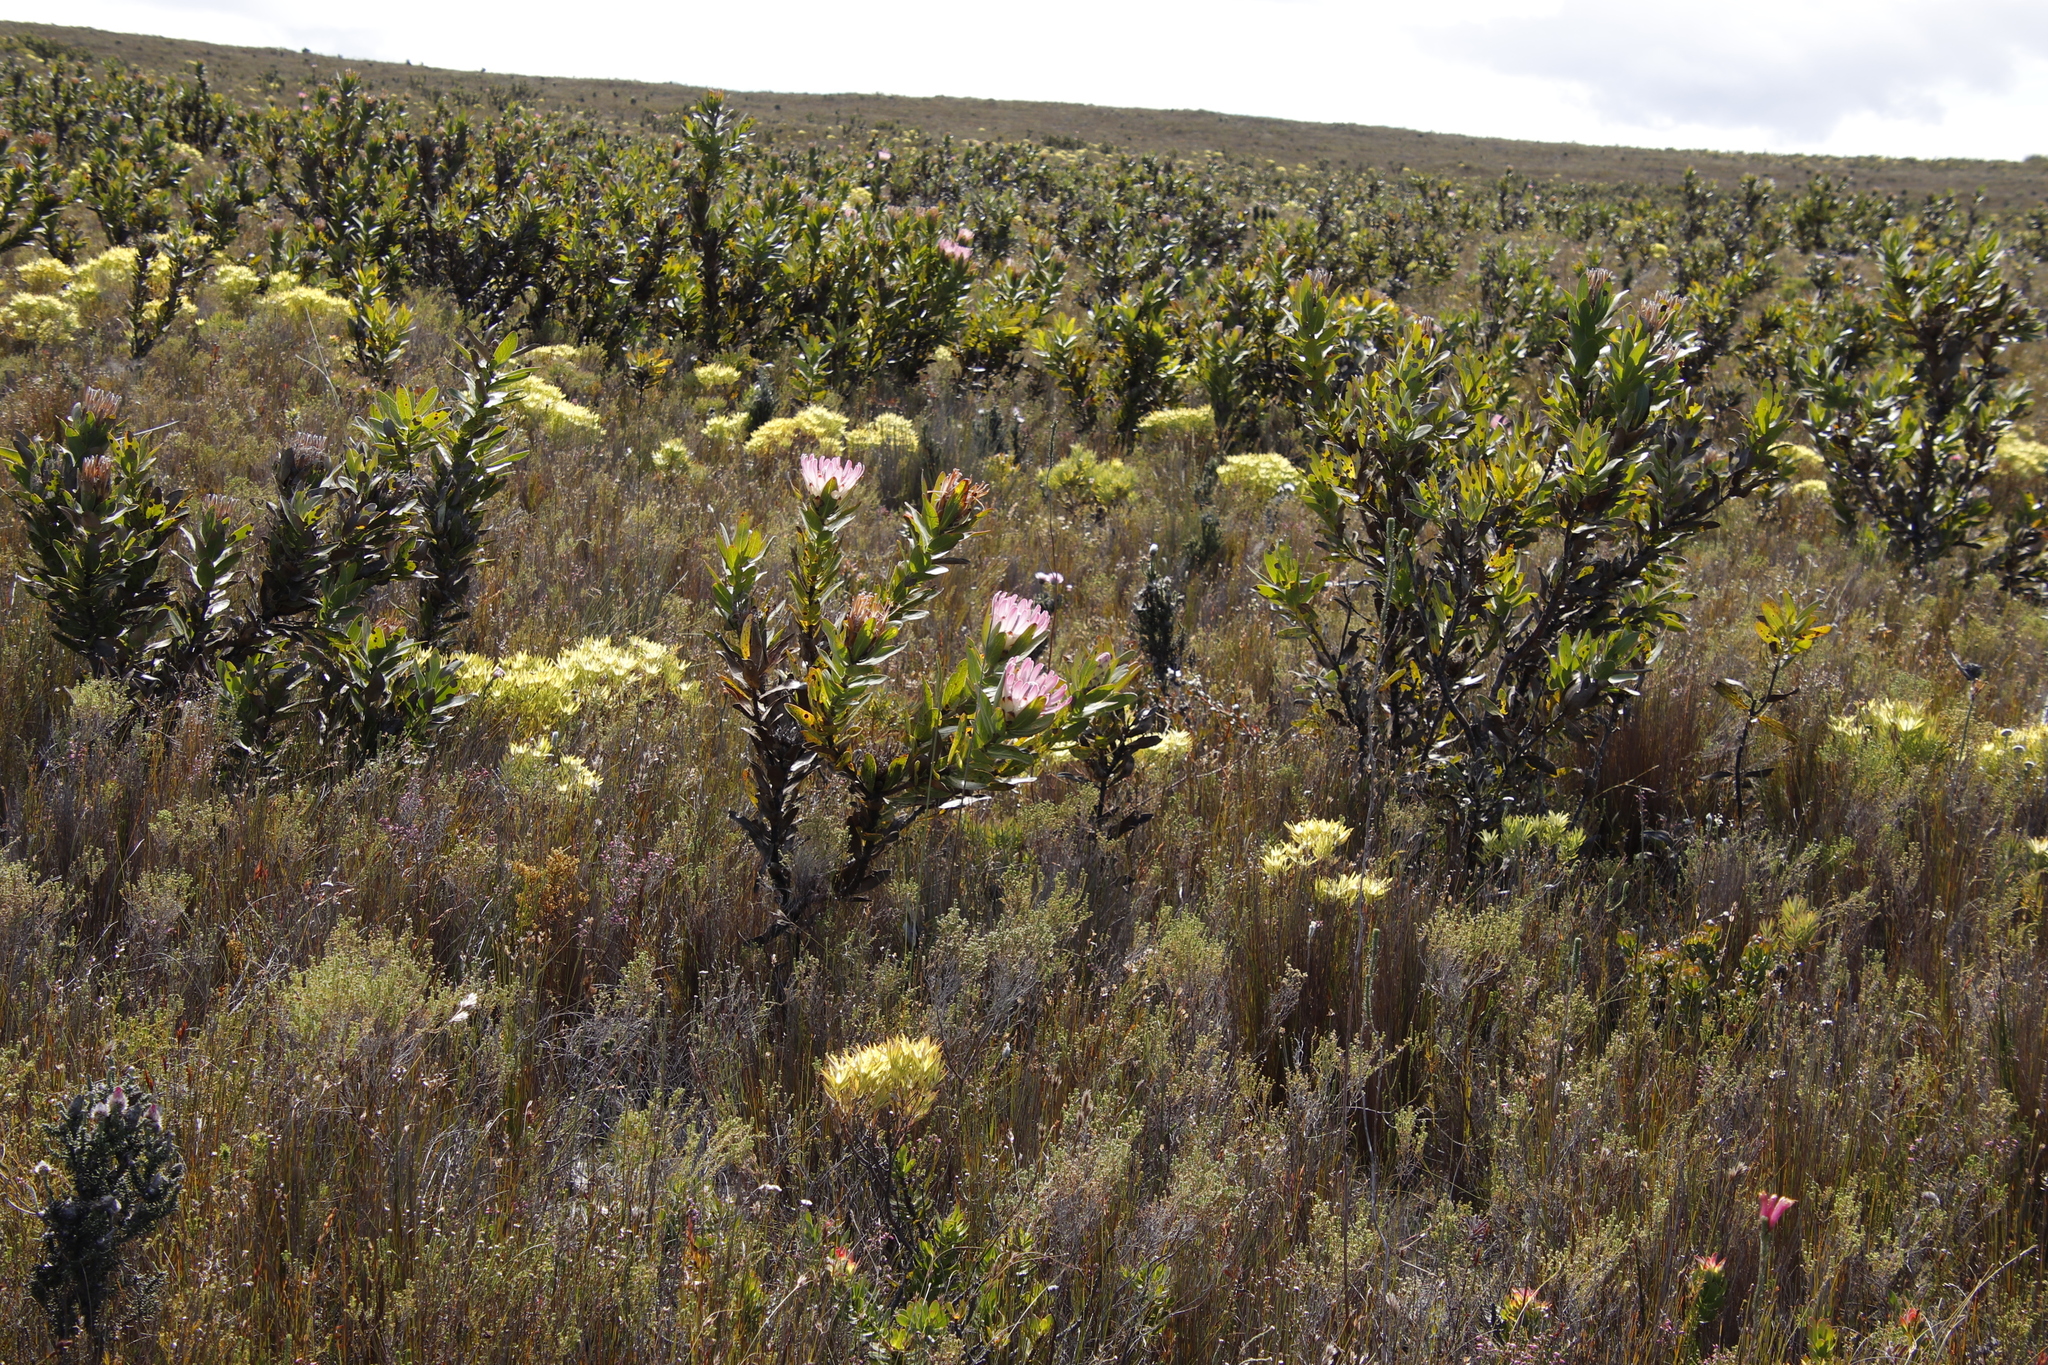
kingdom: Plantae
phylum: Tracheophyta
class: Magnoliopsida
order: Proteales
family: Proteaceae
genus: Protea
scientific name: Protea compacta
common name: Bot river protea
